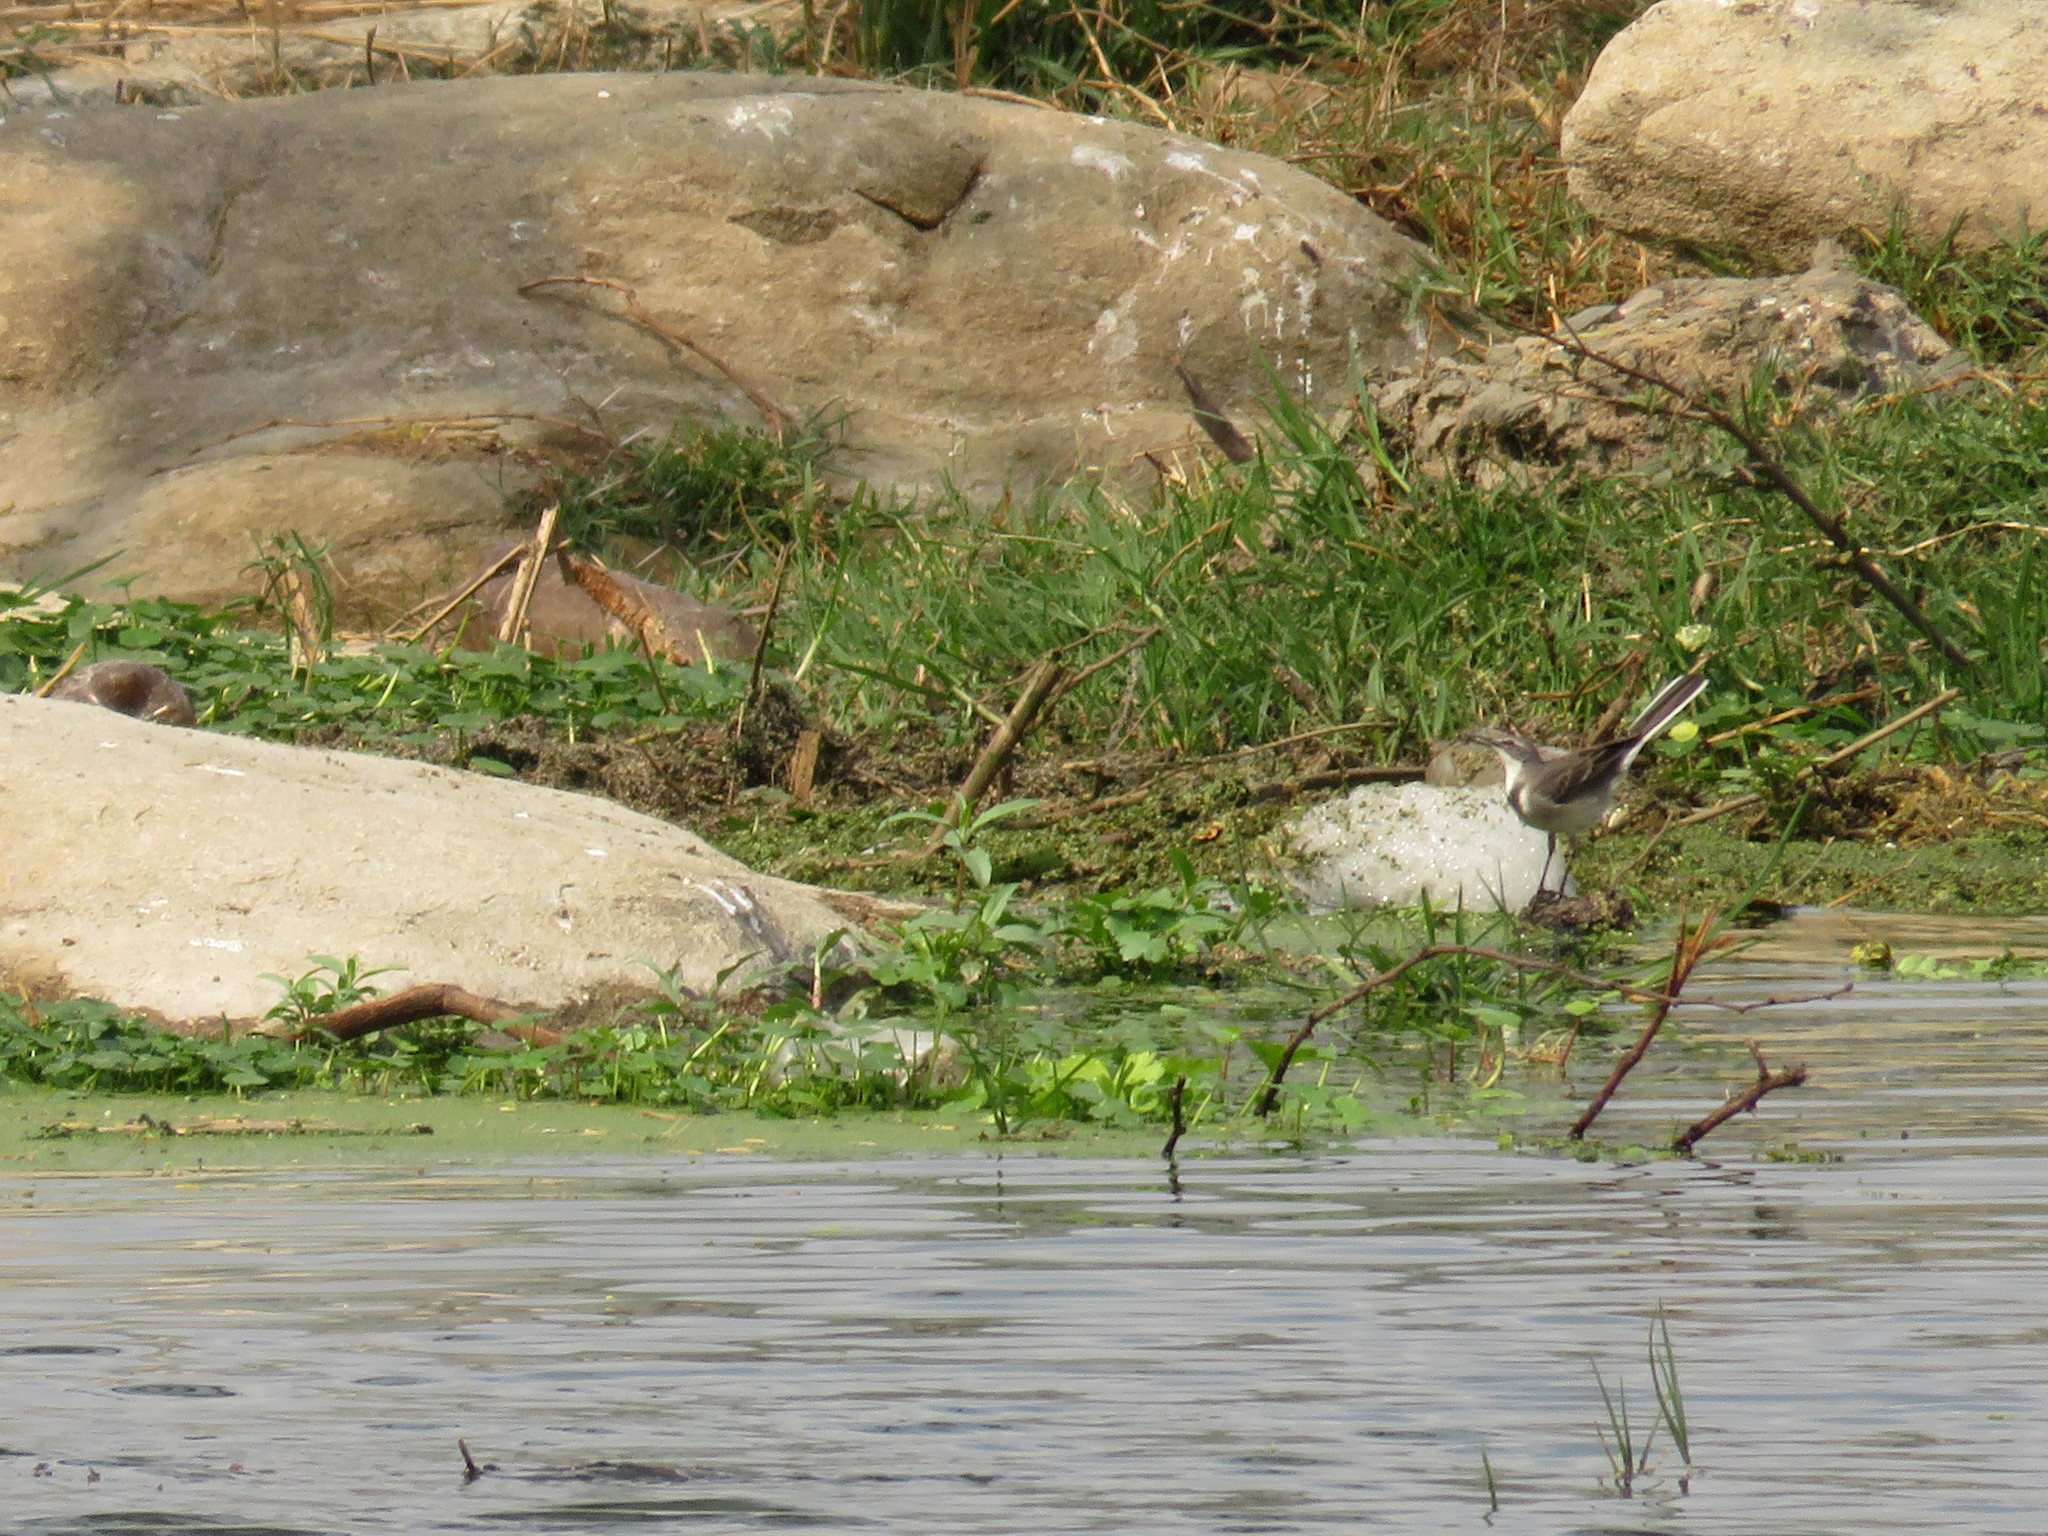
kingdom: Animalia
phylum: Chordata
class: Aves
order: Passeriformes
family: Motacillidae
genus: Motacilla
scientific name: Motacilla capensis
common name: Cape wagtail
